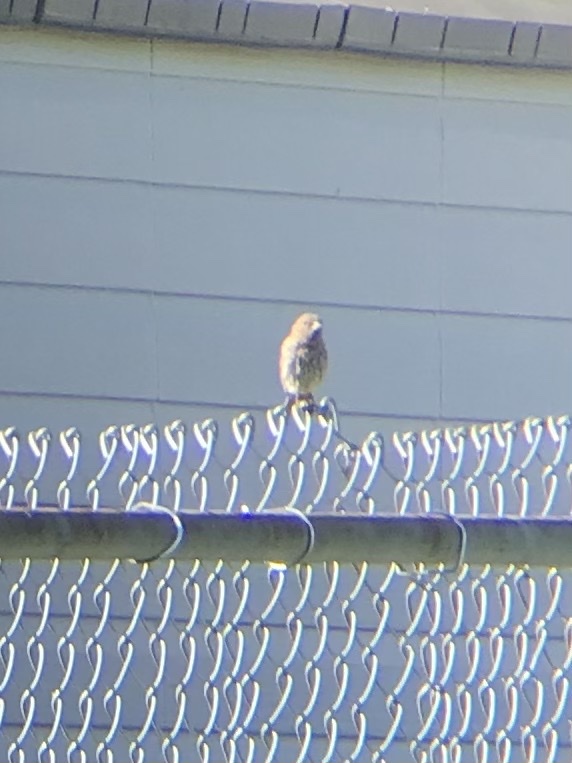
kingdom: Animalia
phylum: Chordata
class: Aves
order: Passeriformes
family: Fringillidae
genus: Haemorhous
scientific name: Haemorhous mexicanus
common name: House finch
